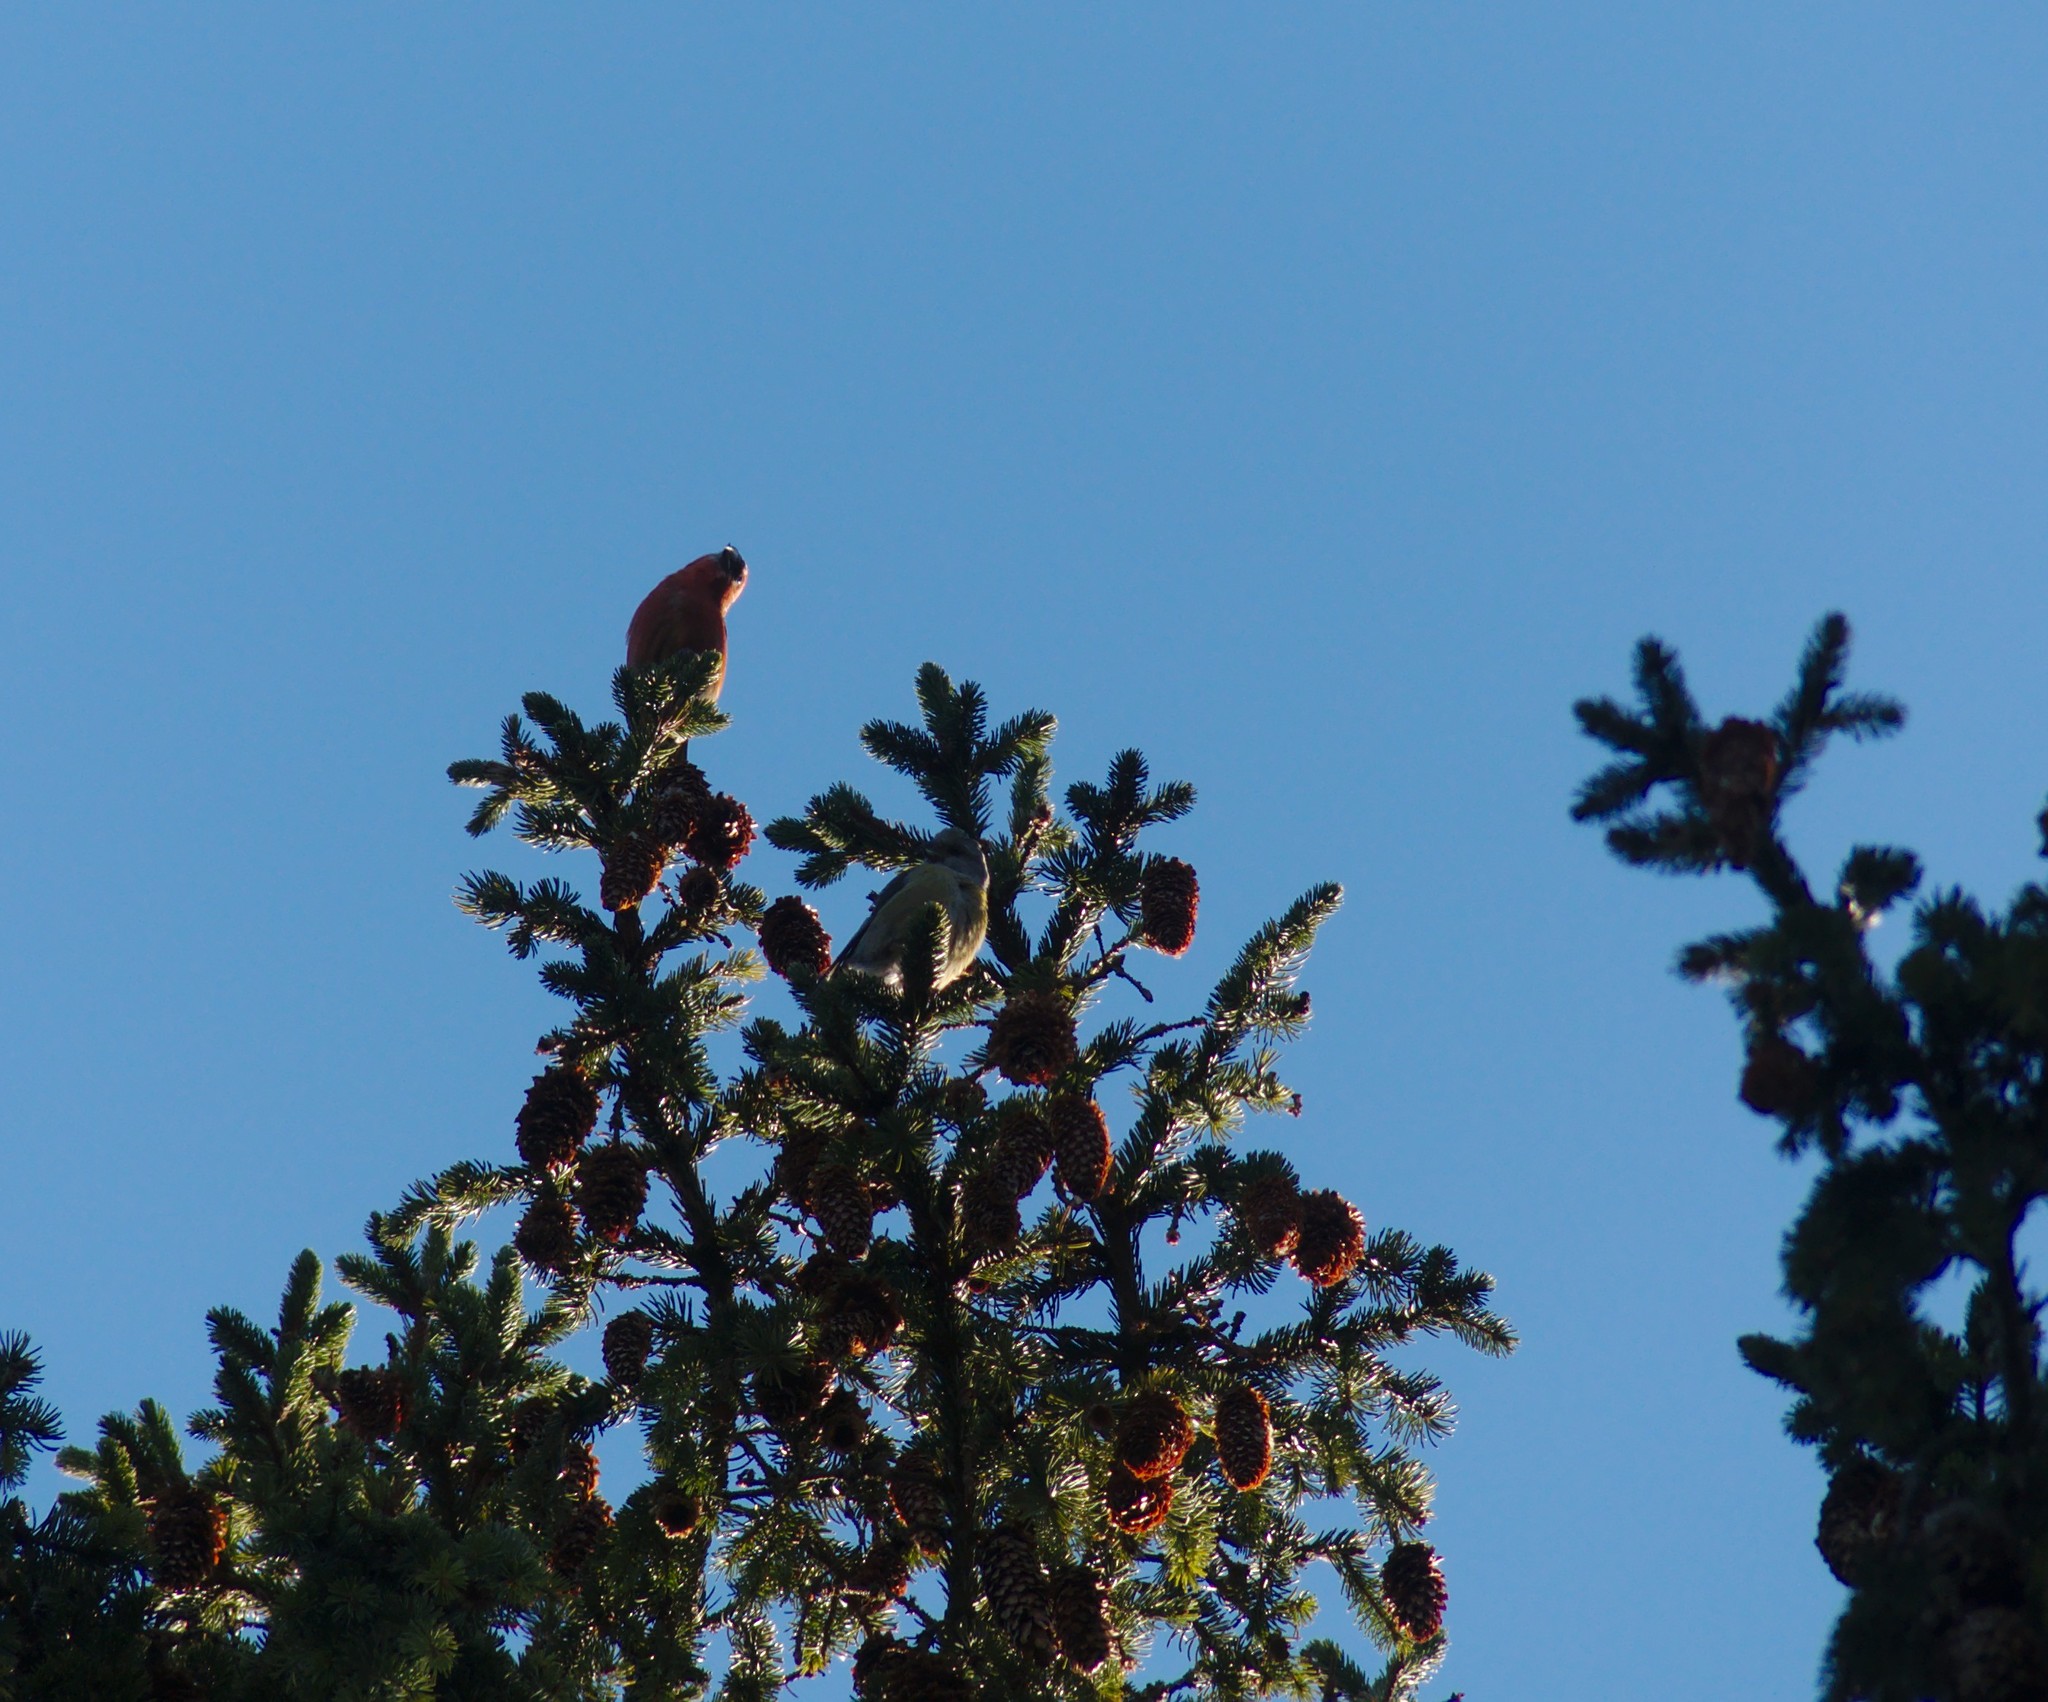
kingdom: Animalia
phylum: Chordata
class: Aves
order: Passeriformes
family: Fringillidae
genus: Loxia
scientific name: Loxia
